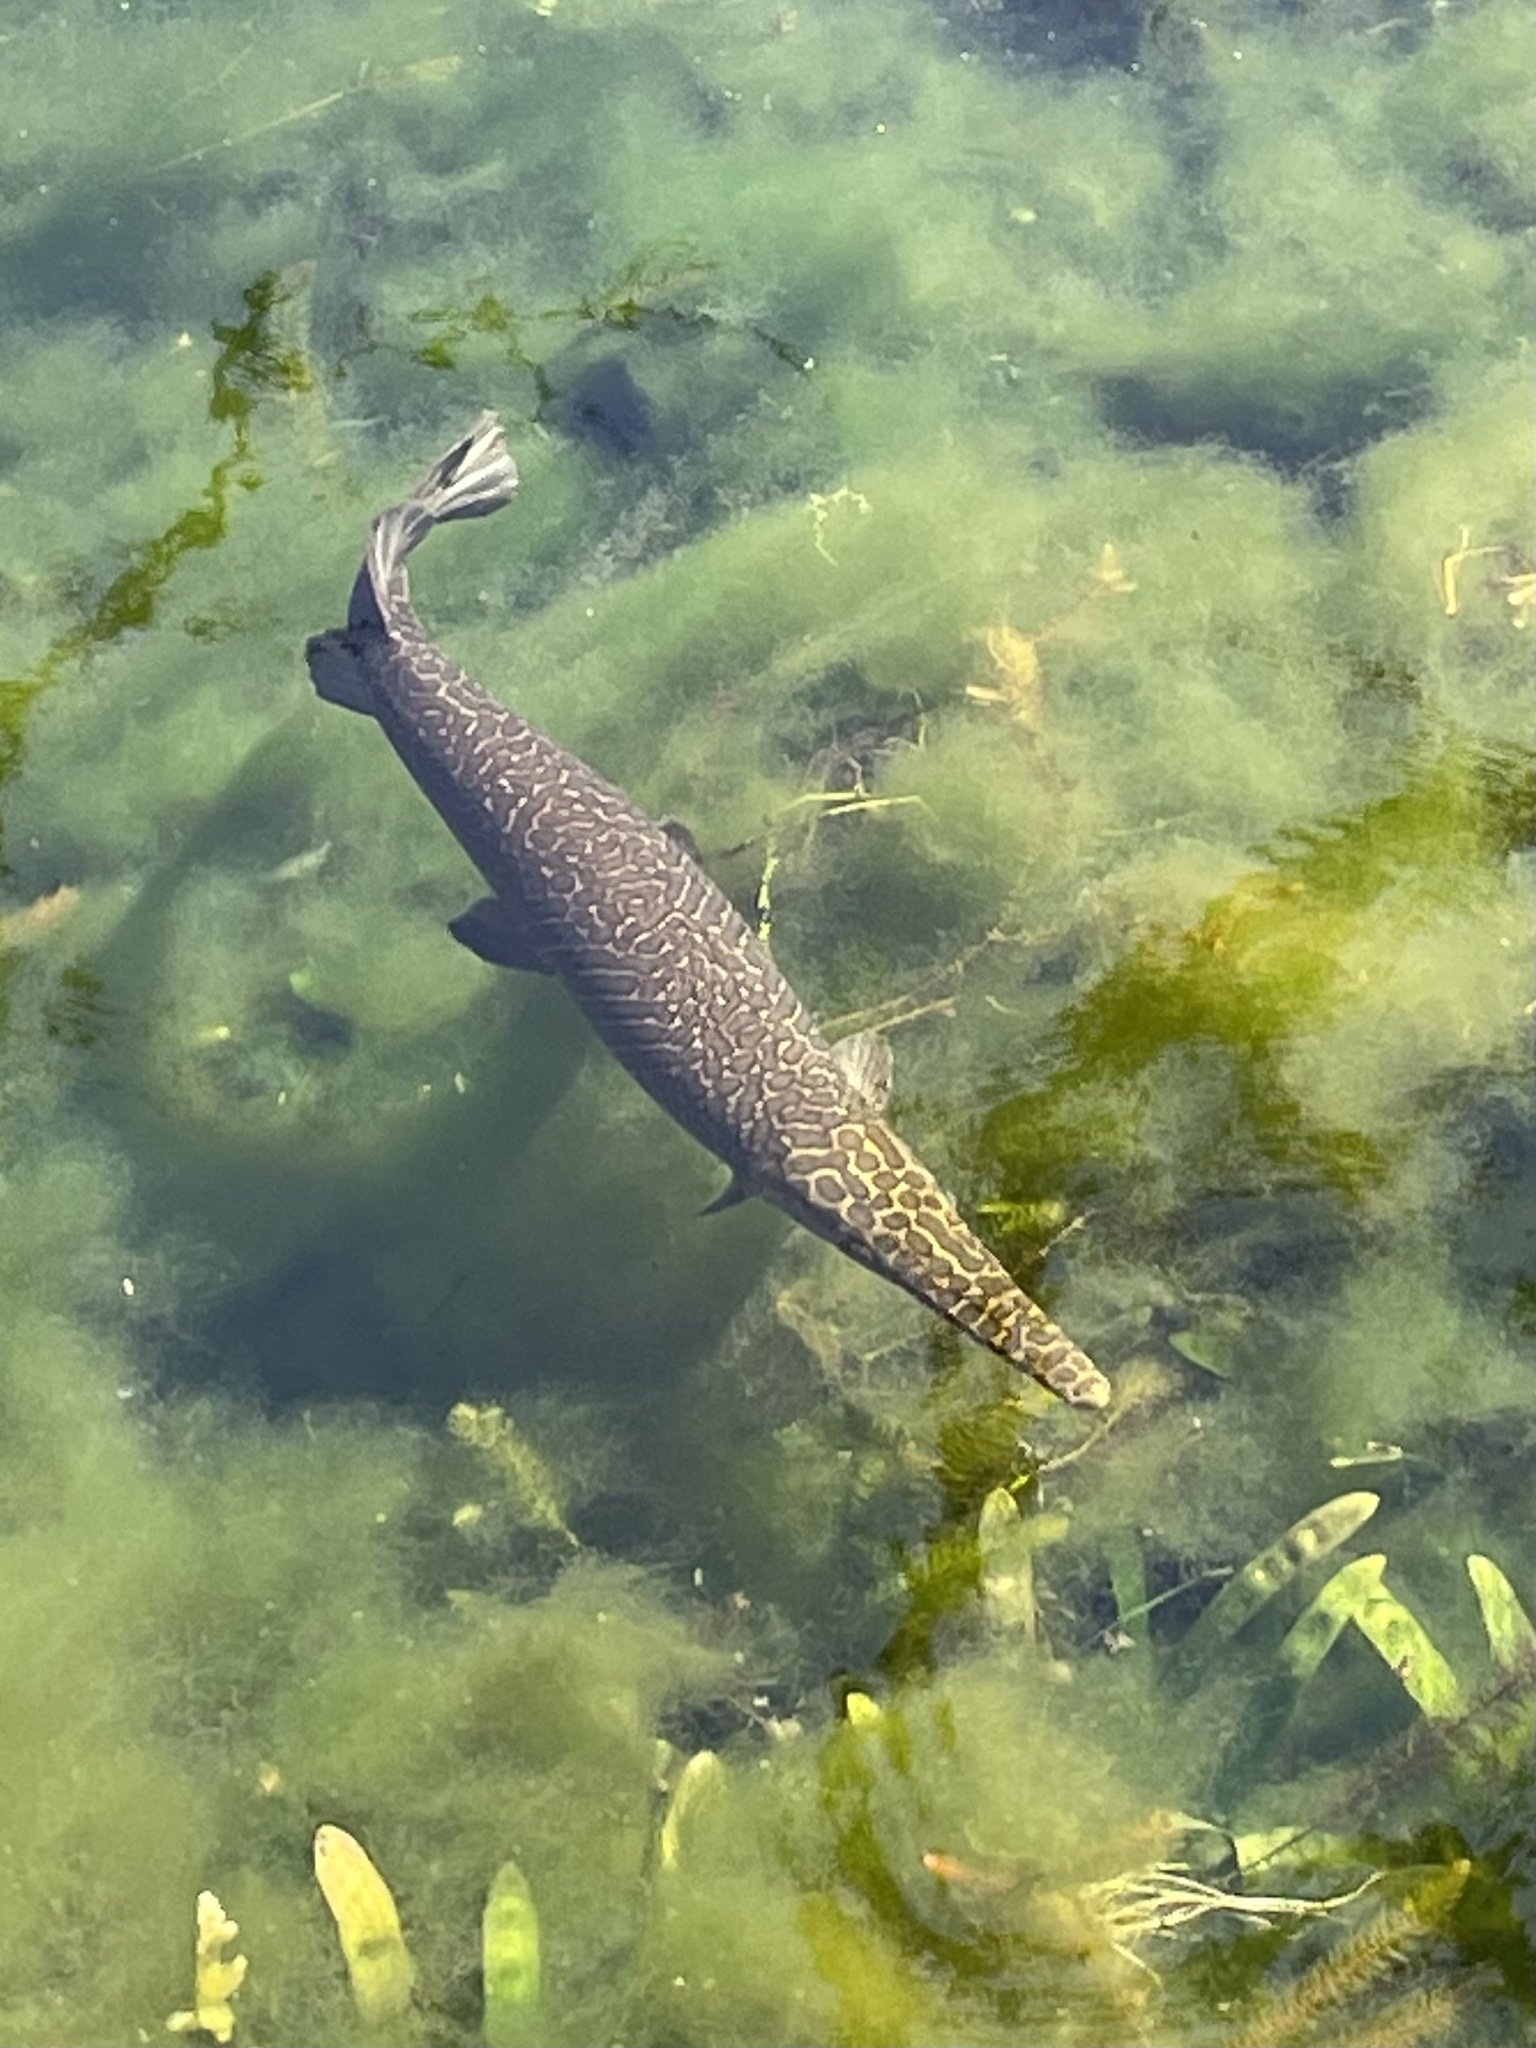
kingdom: Animalia
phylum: Chordata
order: Lepisosteiformes
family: Lepisosteidae
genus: Lepisosteus
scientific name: Lepisosteus oculatus
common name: Spotted gar
